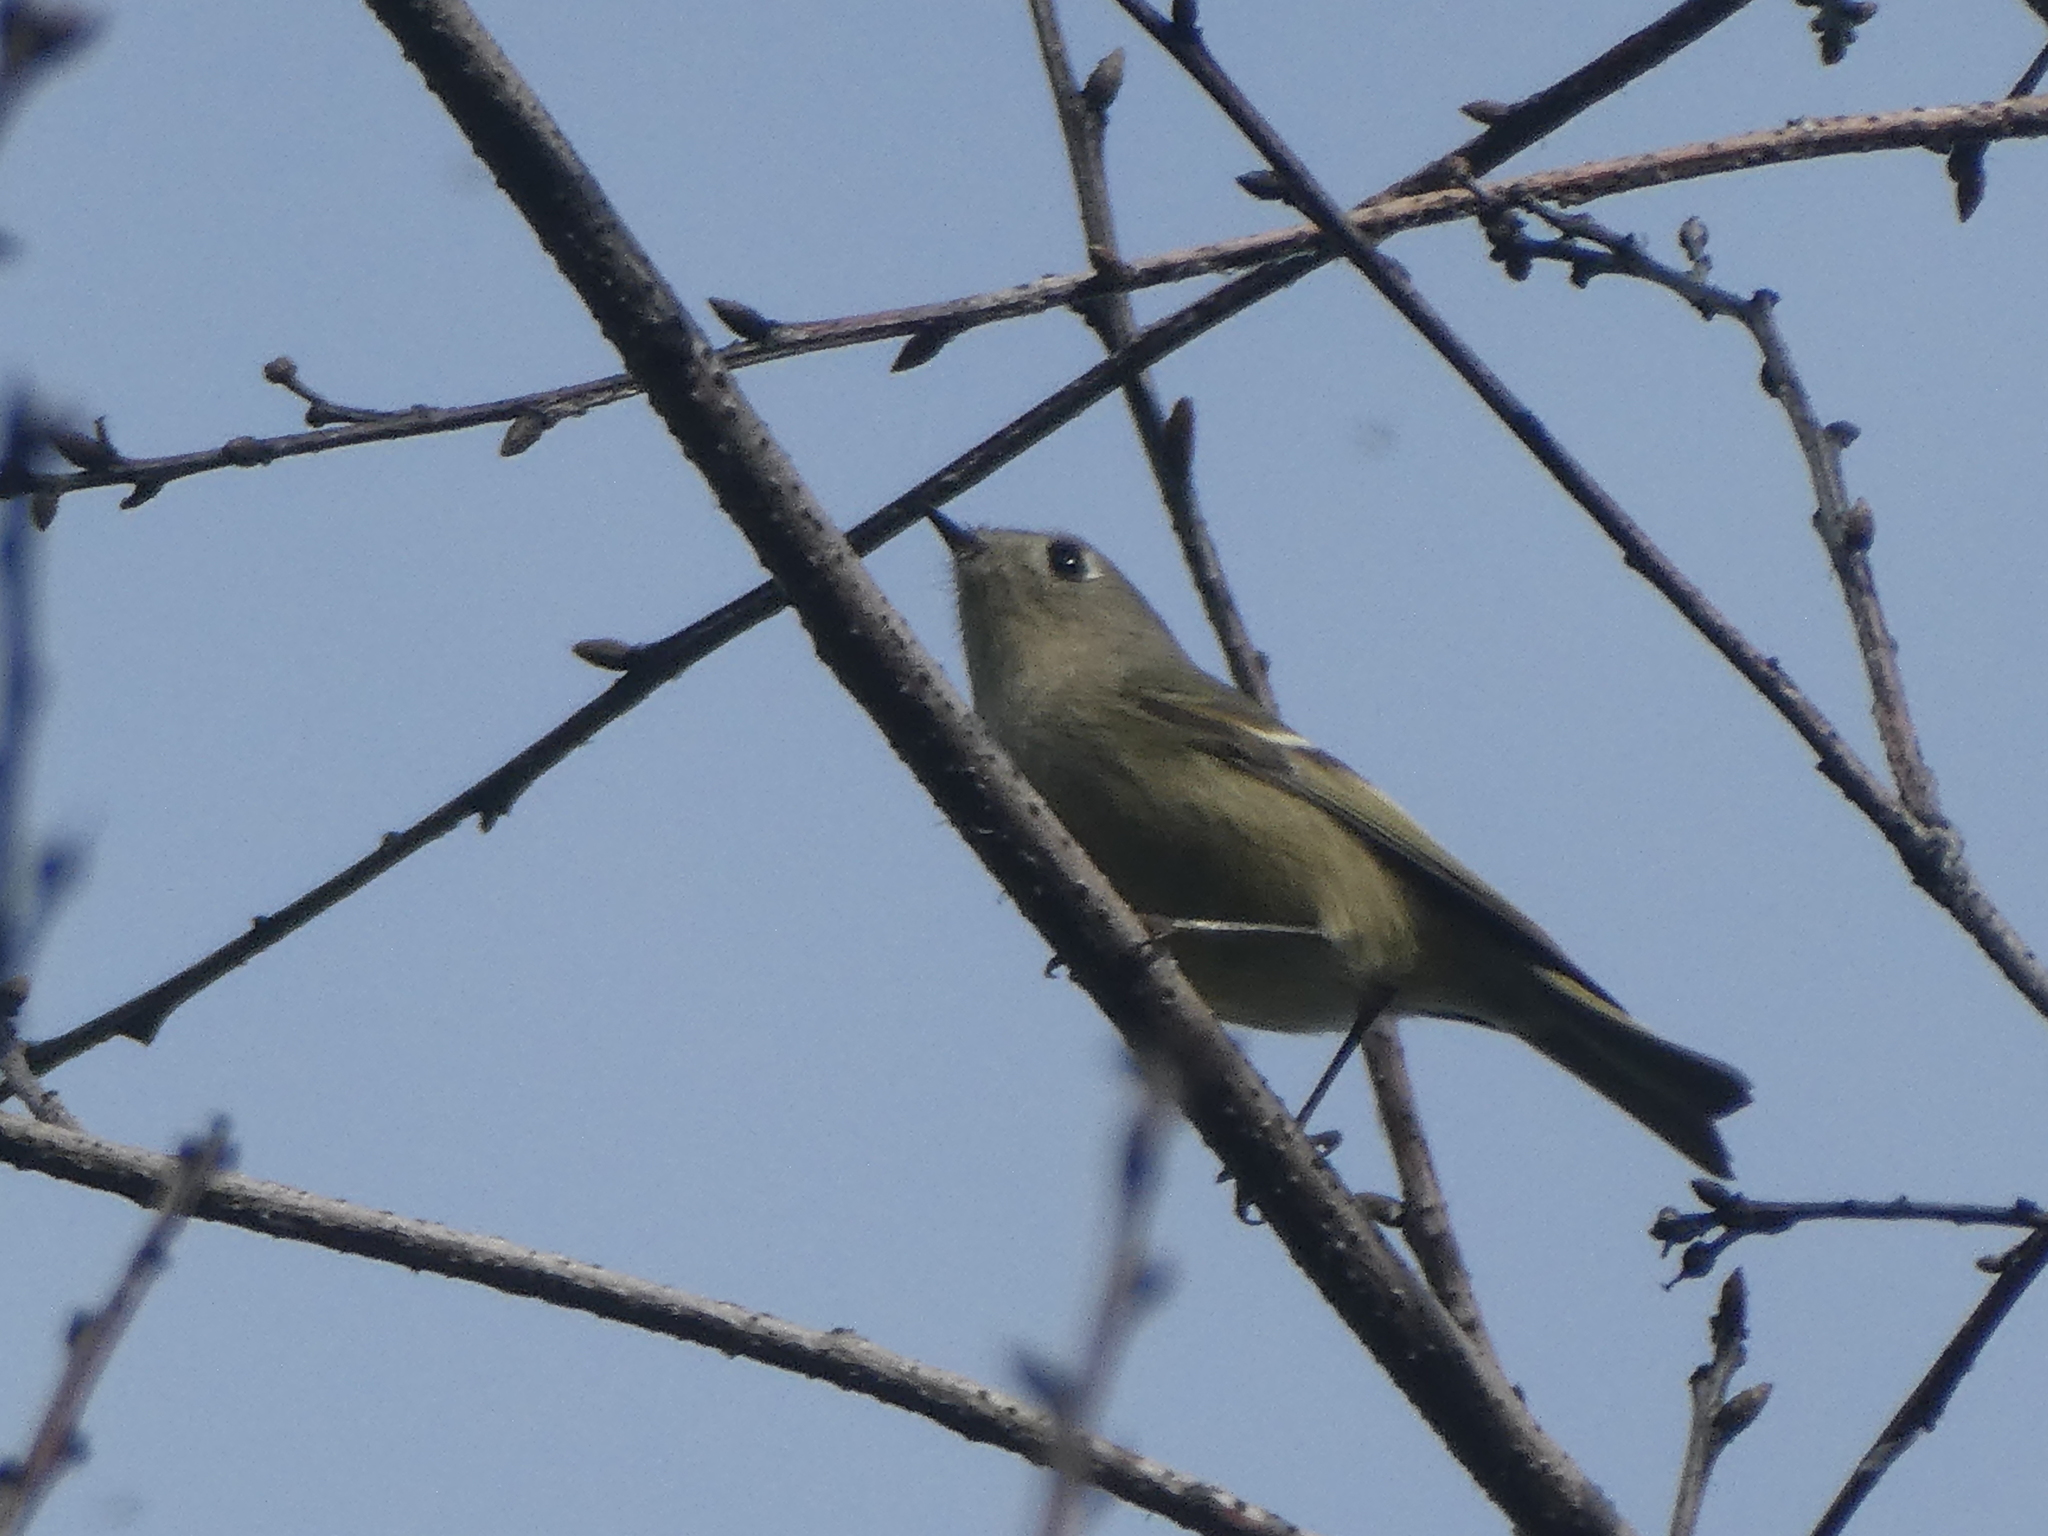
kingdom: Animalia
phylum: Chordata
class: Aves
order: Passeriformes
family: Regulidae
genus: Regulus
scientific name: Regulus calendula
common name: Ruby-crowned kinglet
